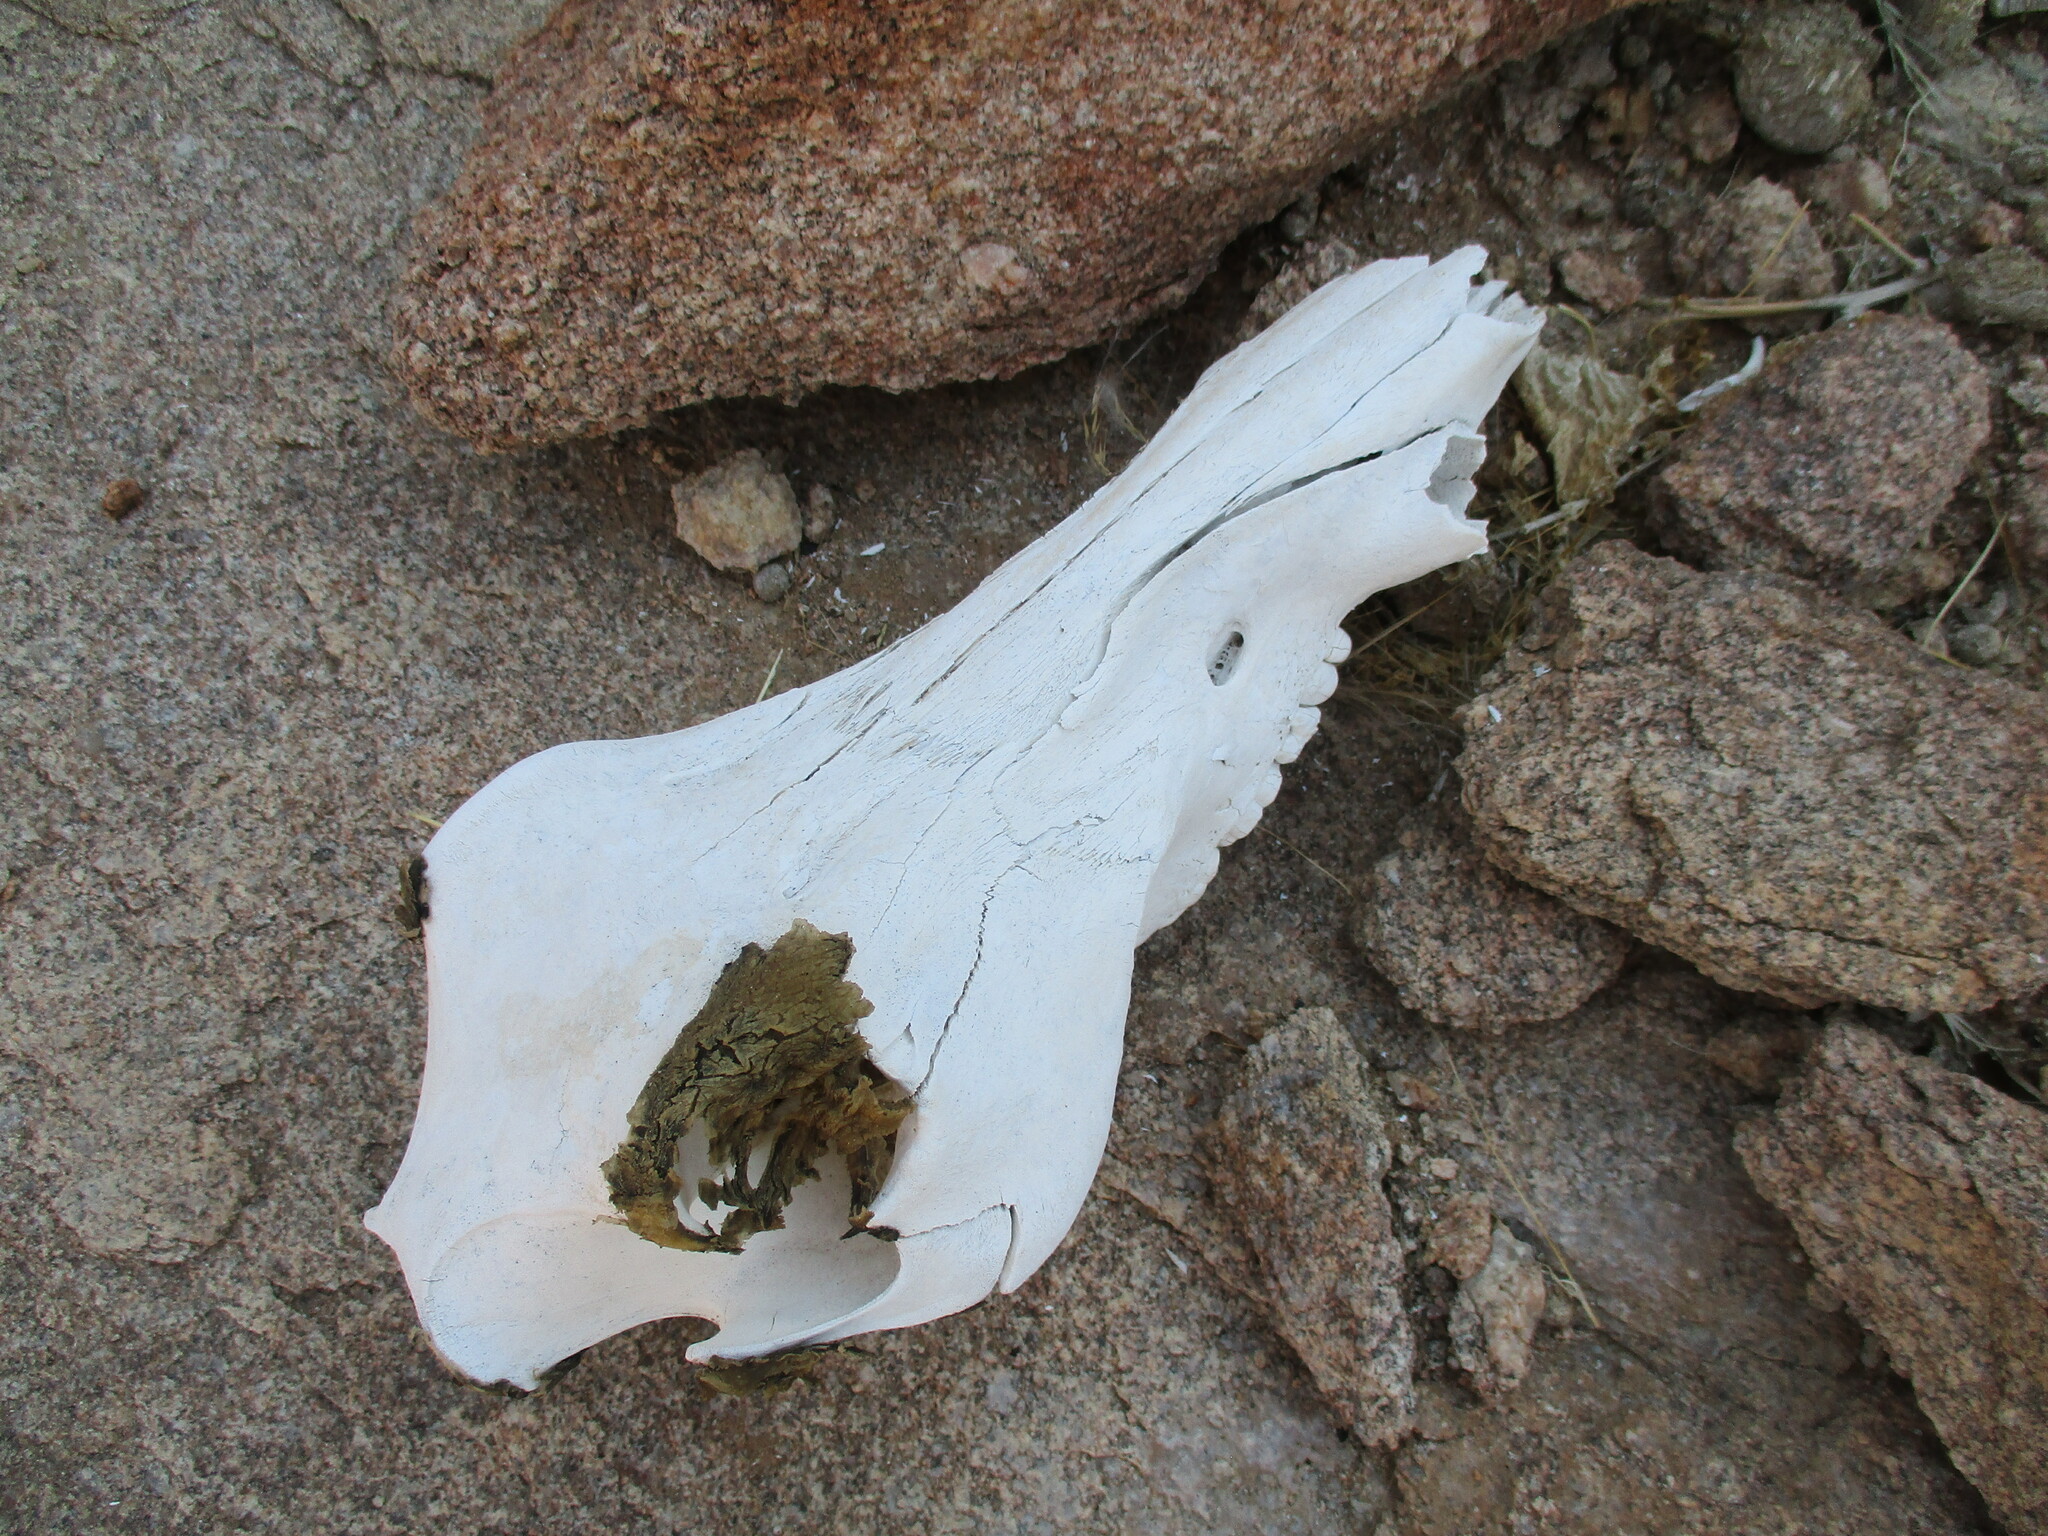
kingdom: Animalia
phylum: Chordata
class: Mammalia
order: Artiodactyla
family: Suidae
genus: Phacochoerus
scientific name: Phacochoerus africanus
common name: Common warthog
